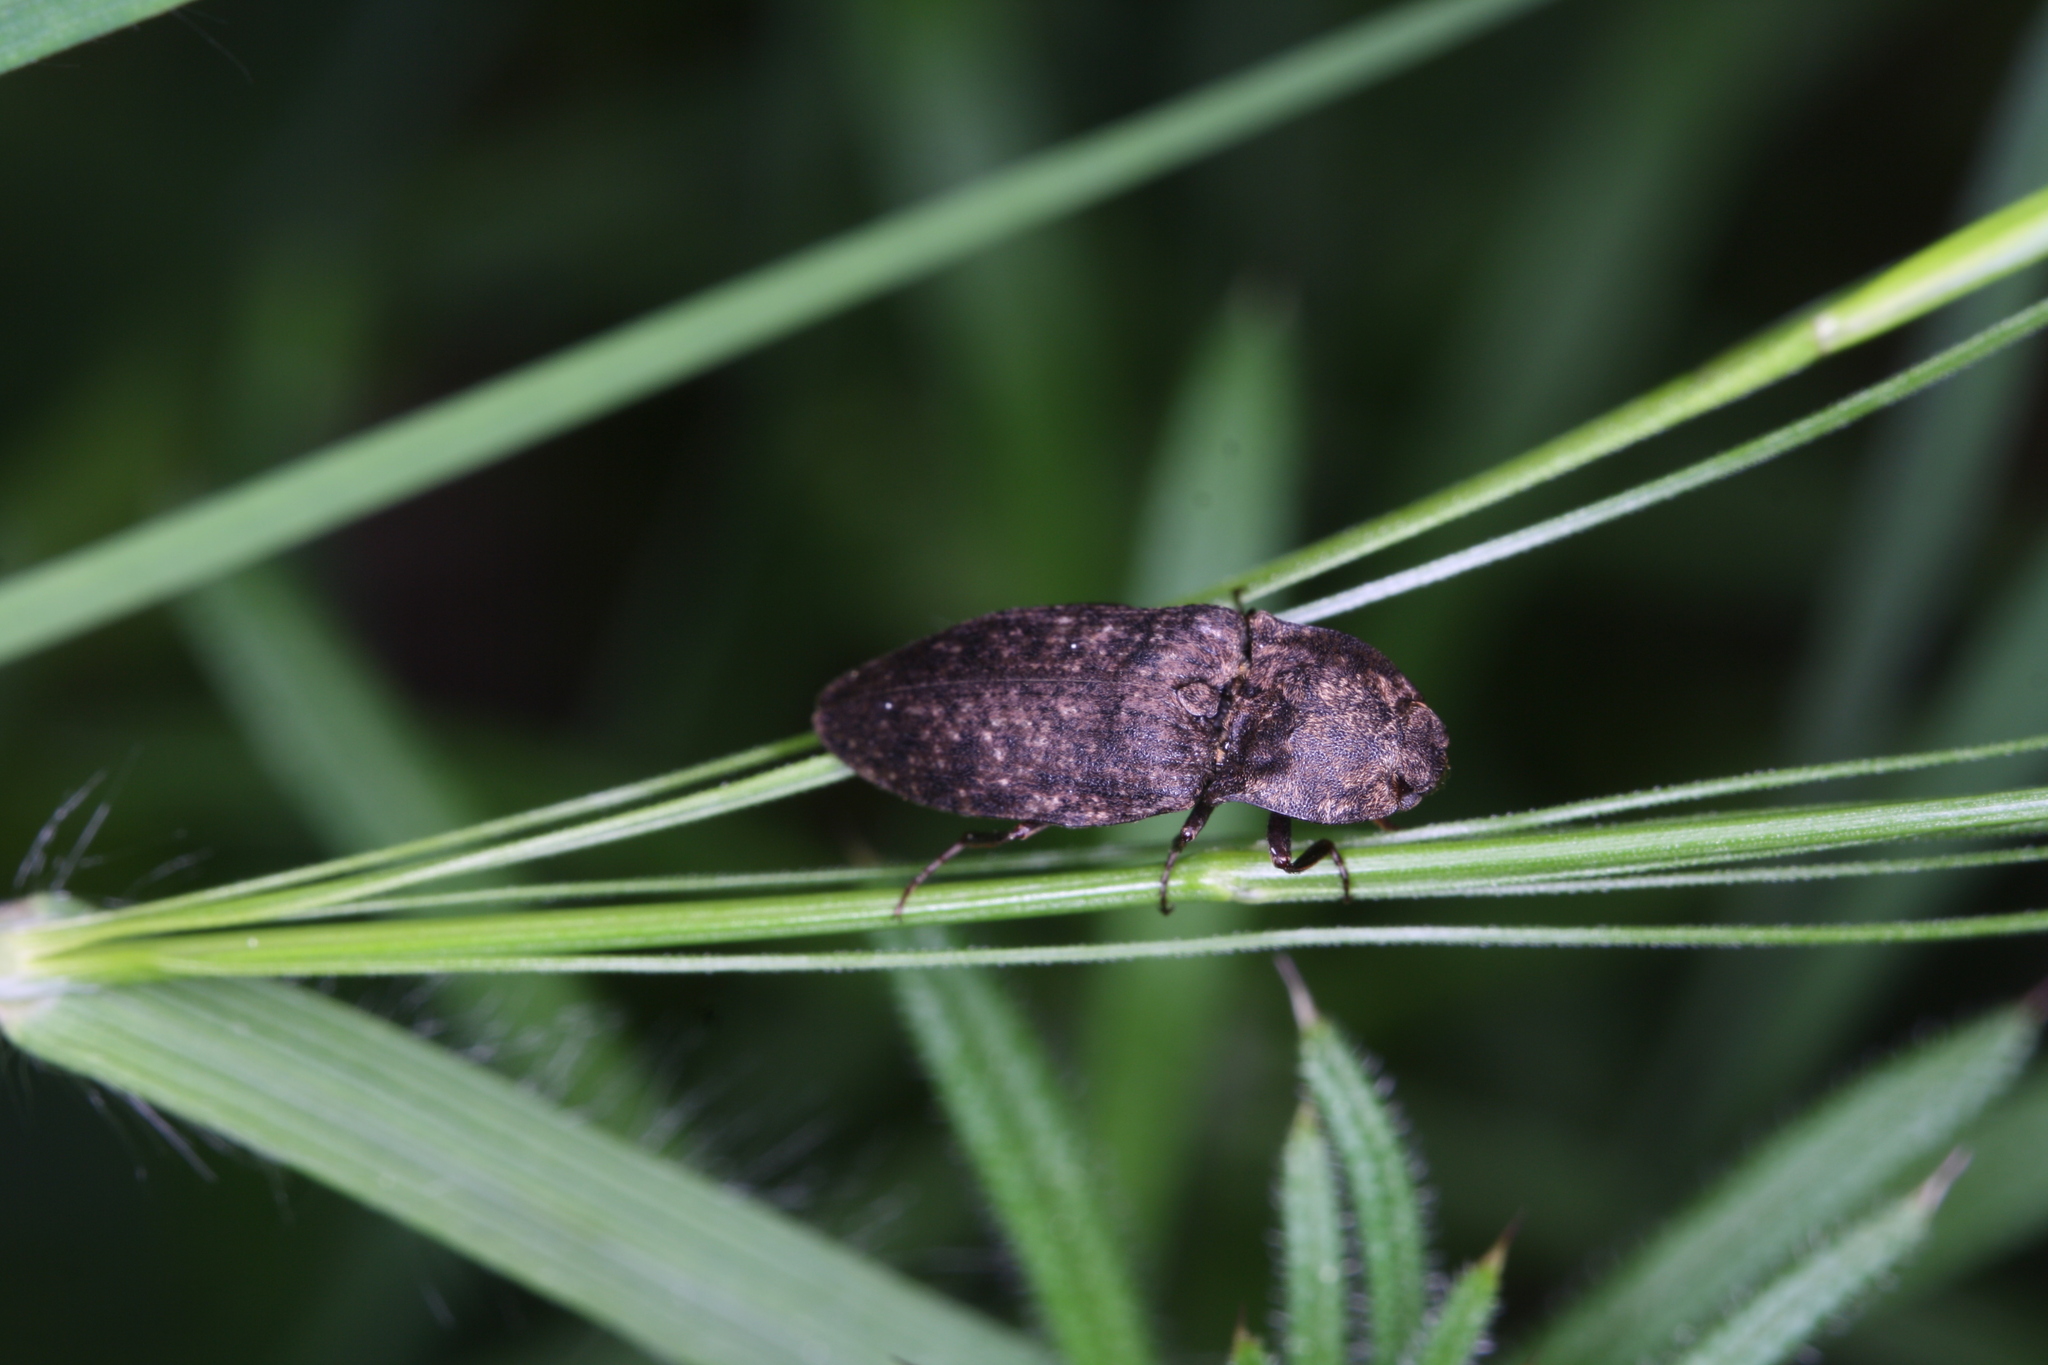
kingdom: Animalia
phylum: Arthropoda
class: Insecta
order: Coleoptera
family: Elateridae
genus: Agrypnus
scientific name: Agrypnus murinus
